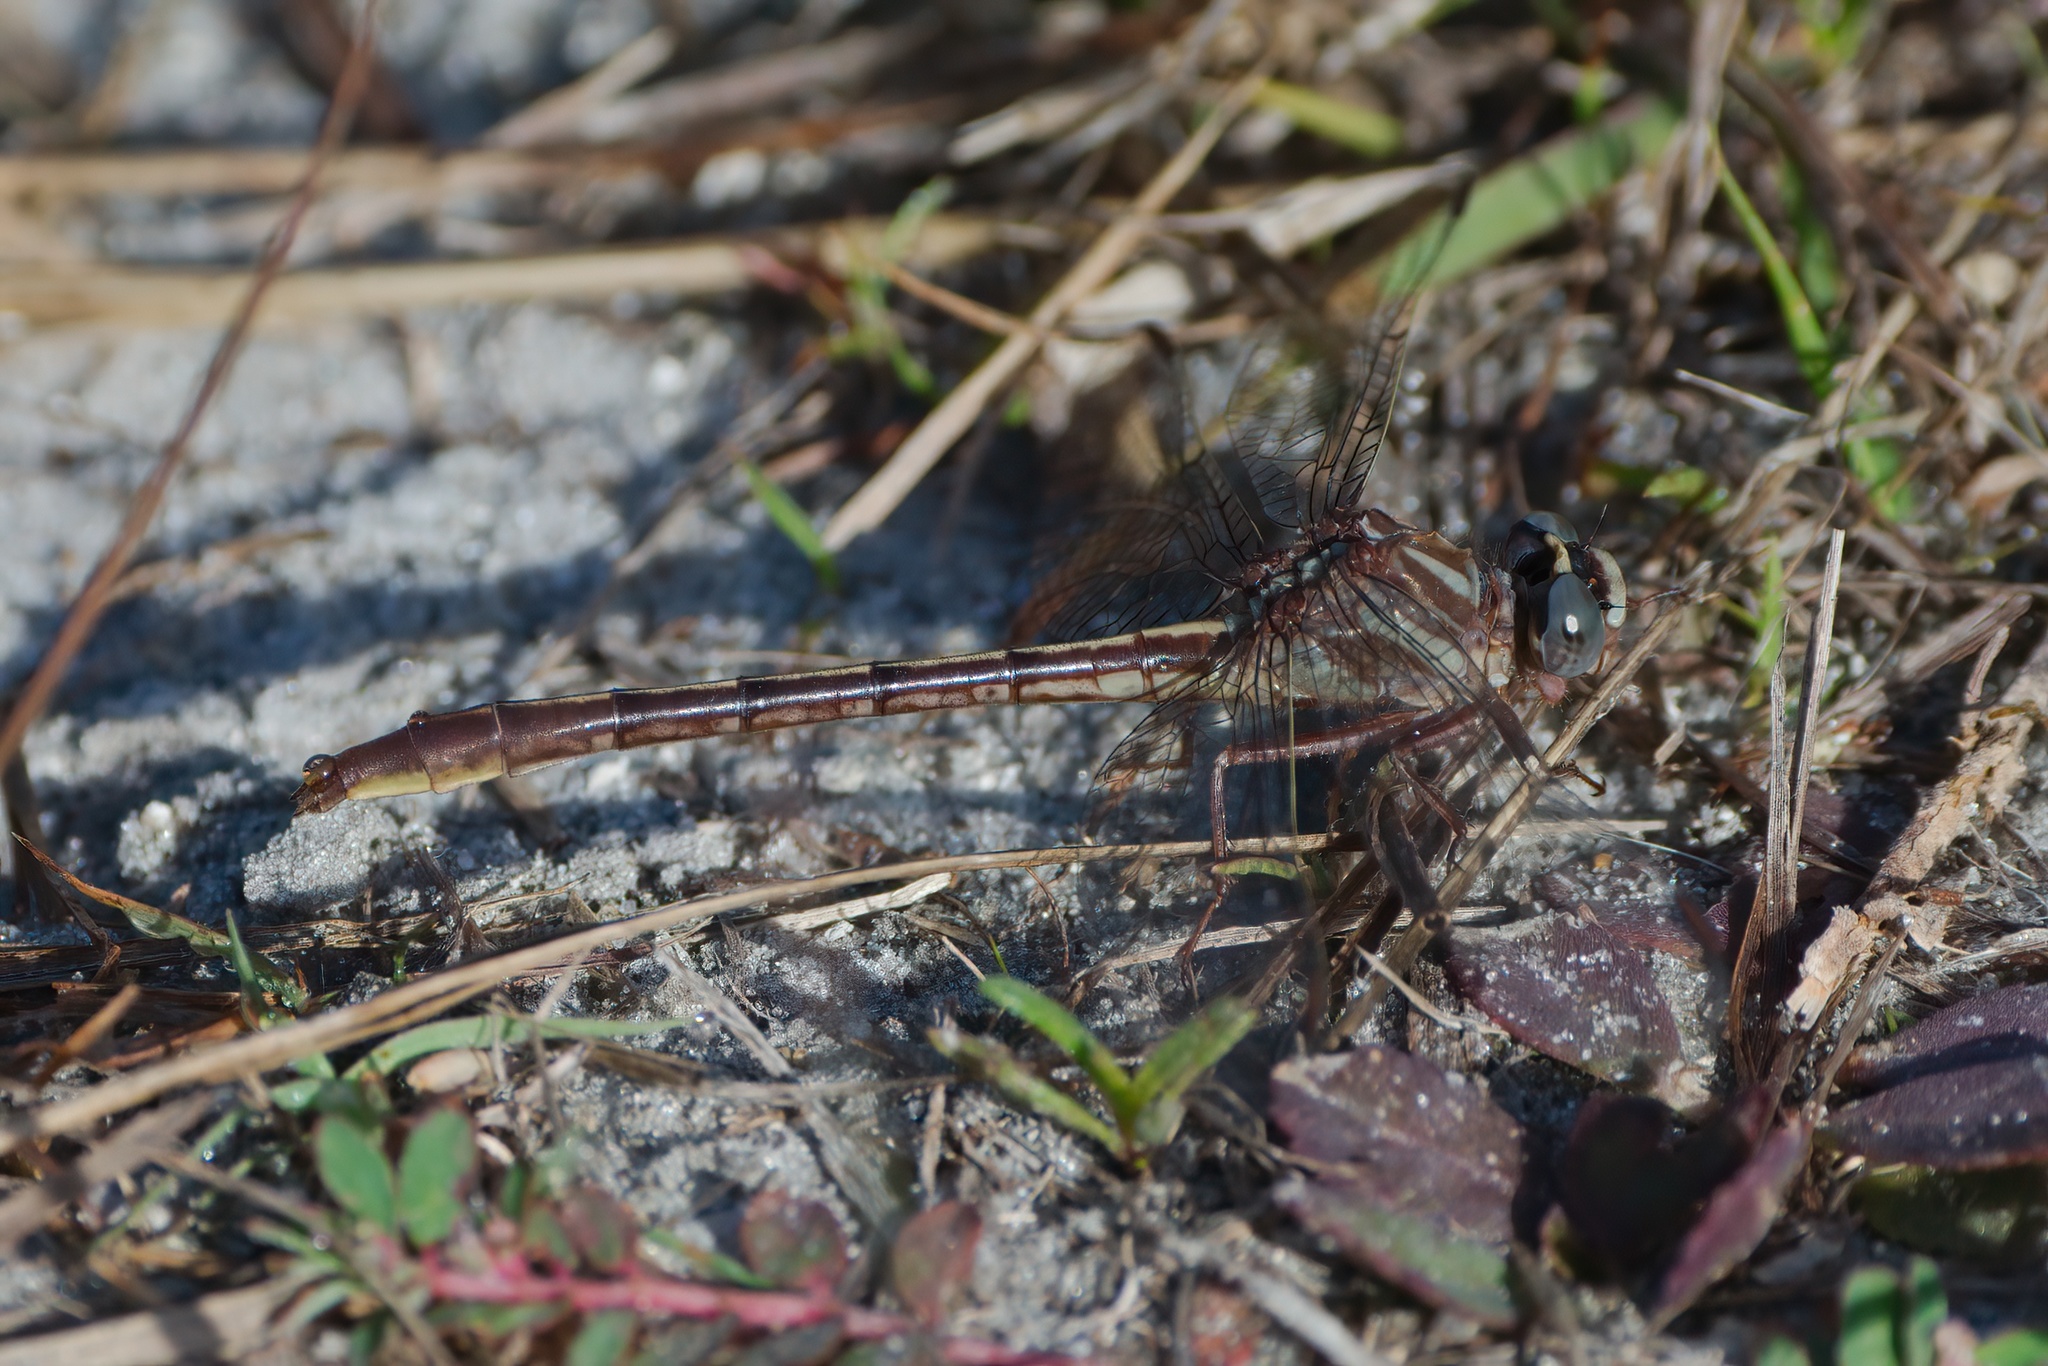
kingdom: Animalia
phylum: Arthropoda
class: Insecta
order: Odonata
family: Gomphidae
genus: Phanogomphus
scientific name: Phanogomphus minutus
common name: Cypress clubtail
